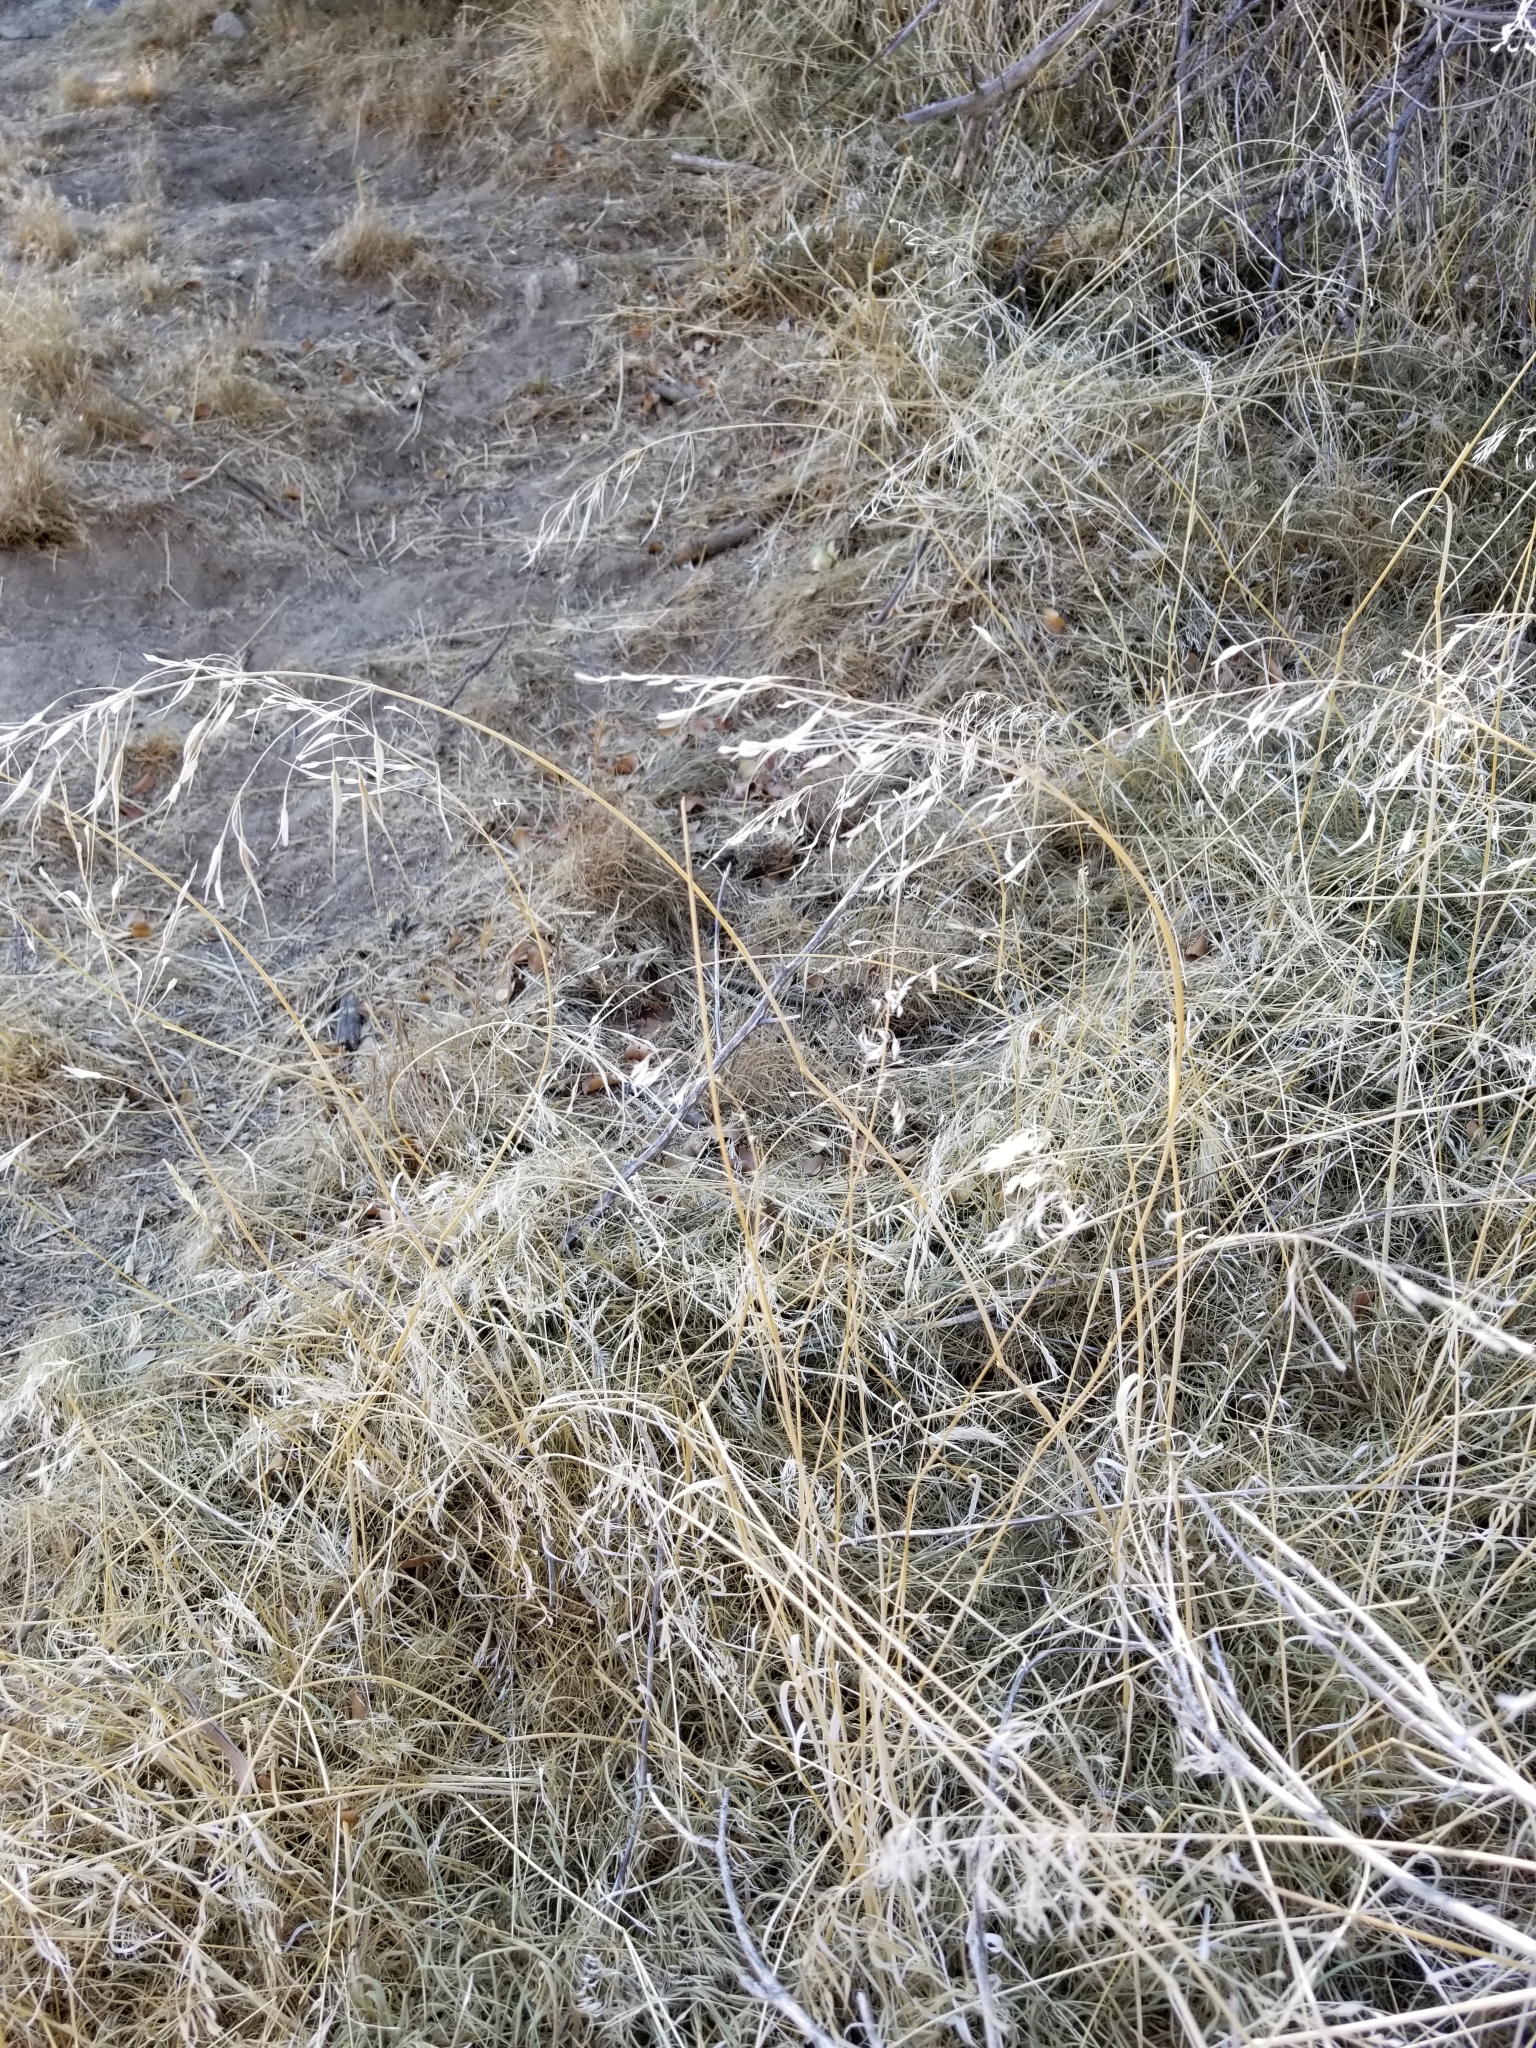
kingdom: Plantae
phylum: Tracheophyta
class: Liliopsida
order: Poales
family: Poaceae
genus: Bromus
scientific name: Bromus tectorum
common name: Cheatgrass
